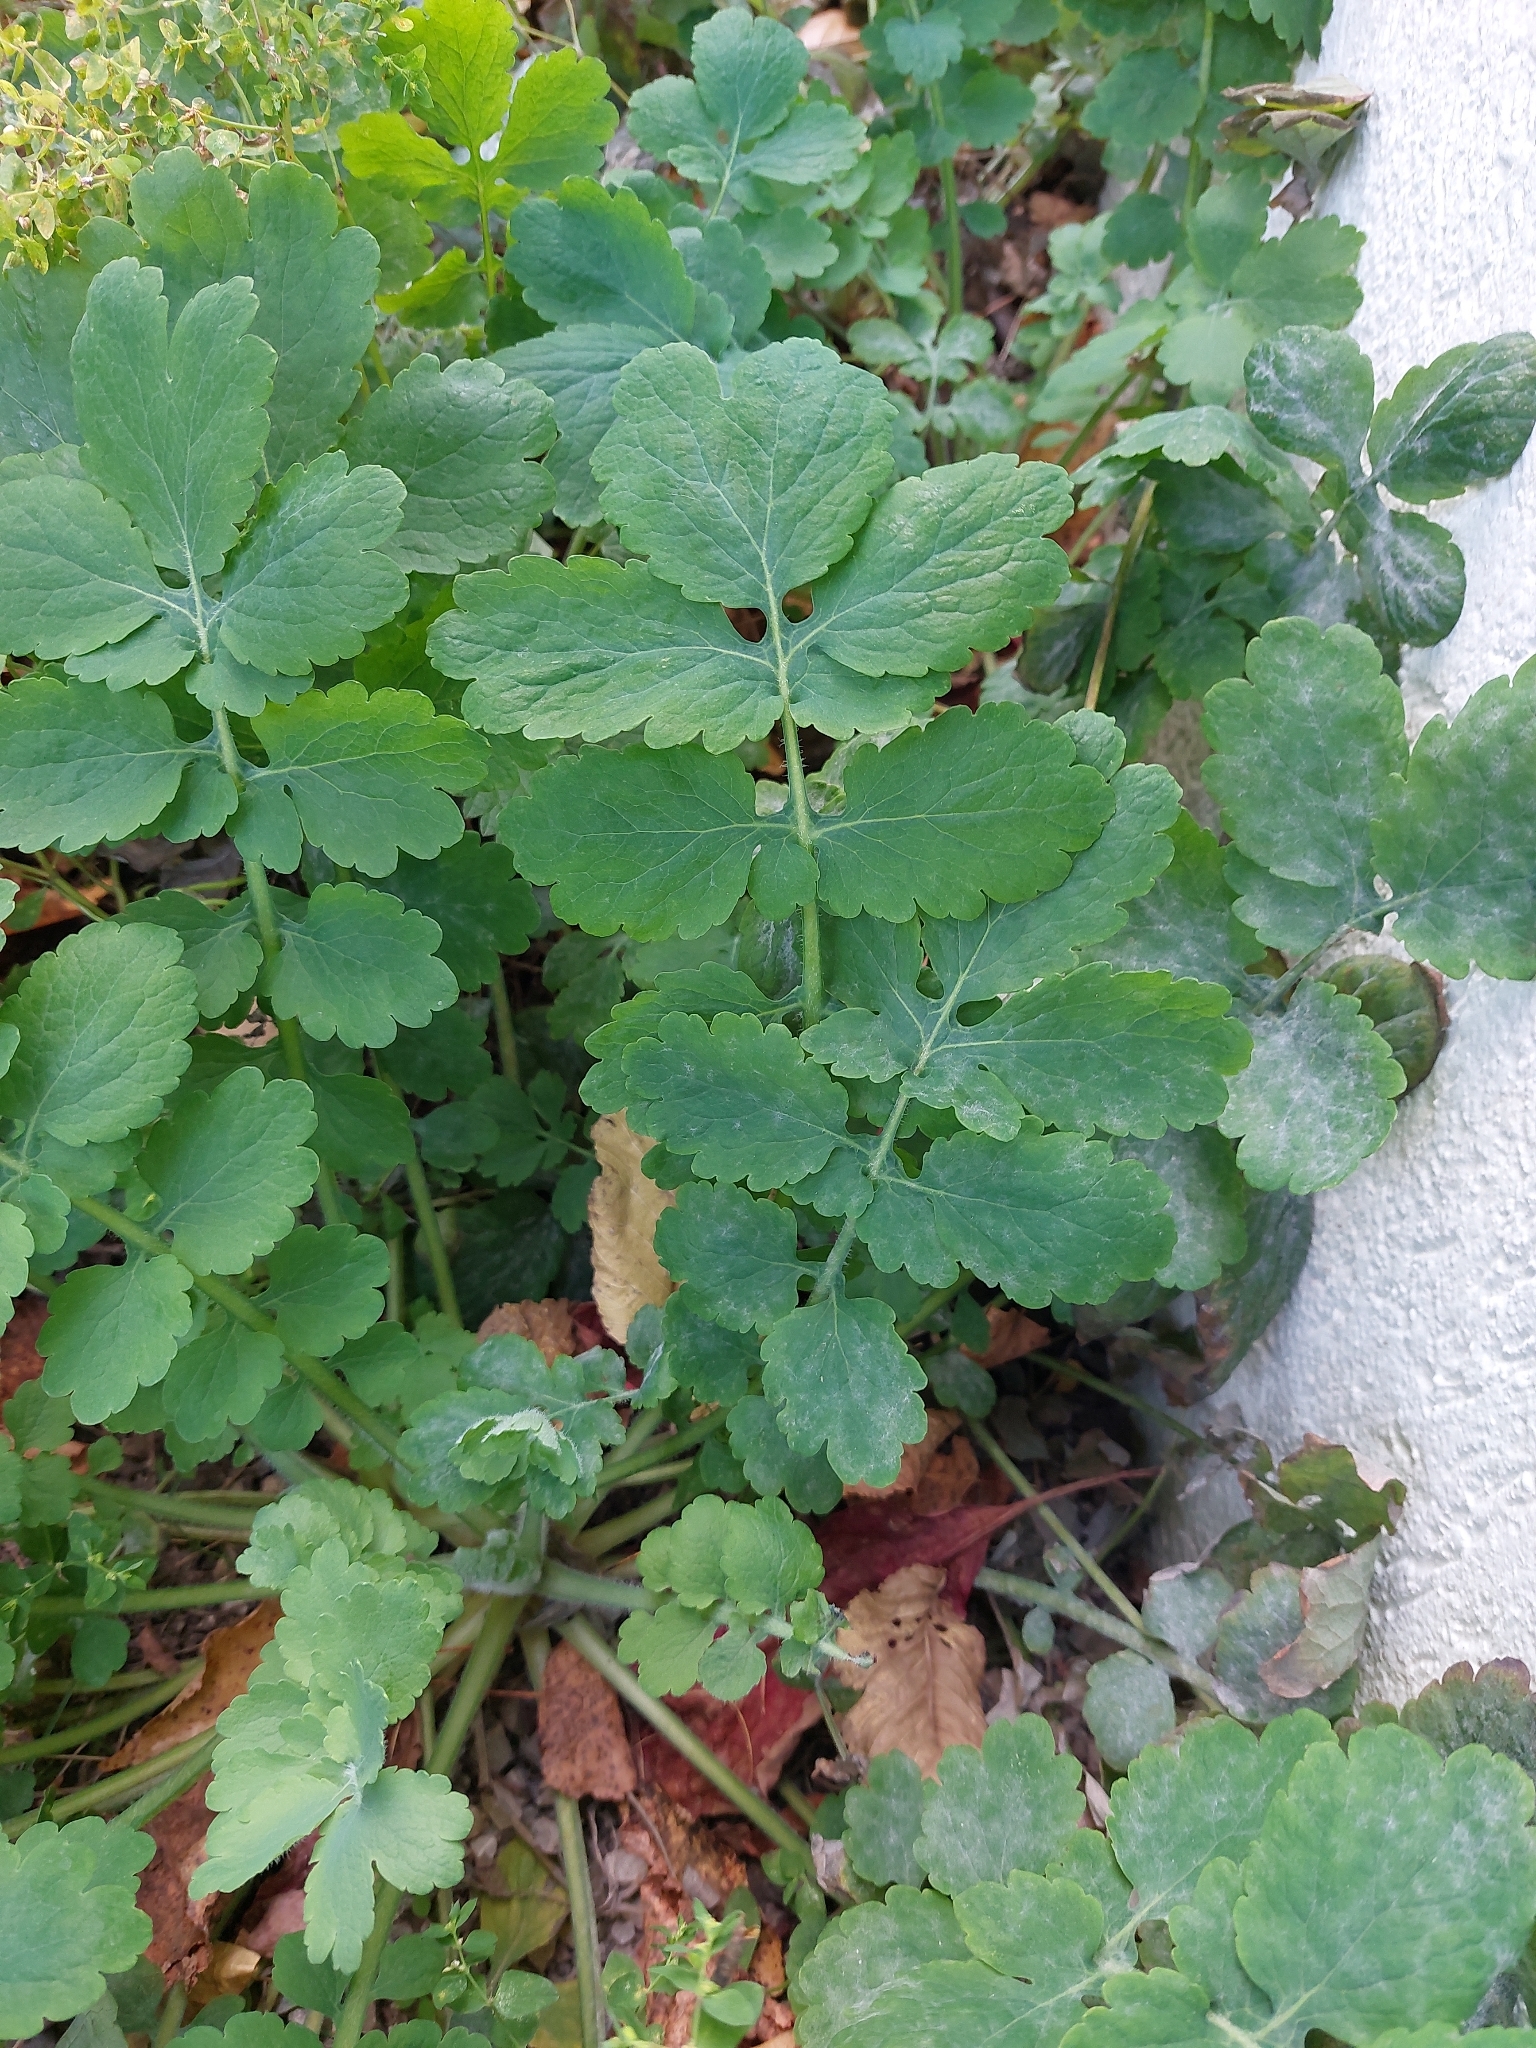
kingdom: Plantae
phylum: Tracheophyta
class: Magnoliopsida
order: Ranunculales
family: Papaveraceae
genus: Chelidonium
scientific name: Chelidonium majus
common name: Greater celandine
